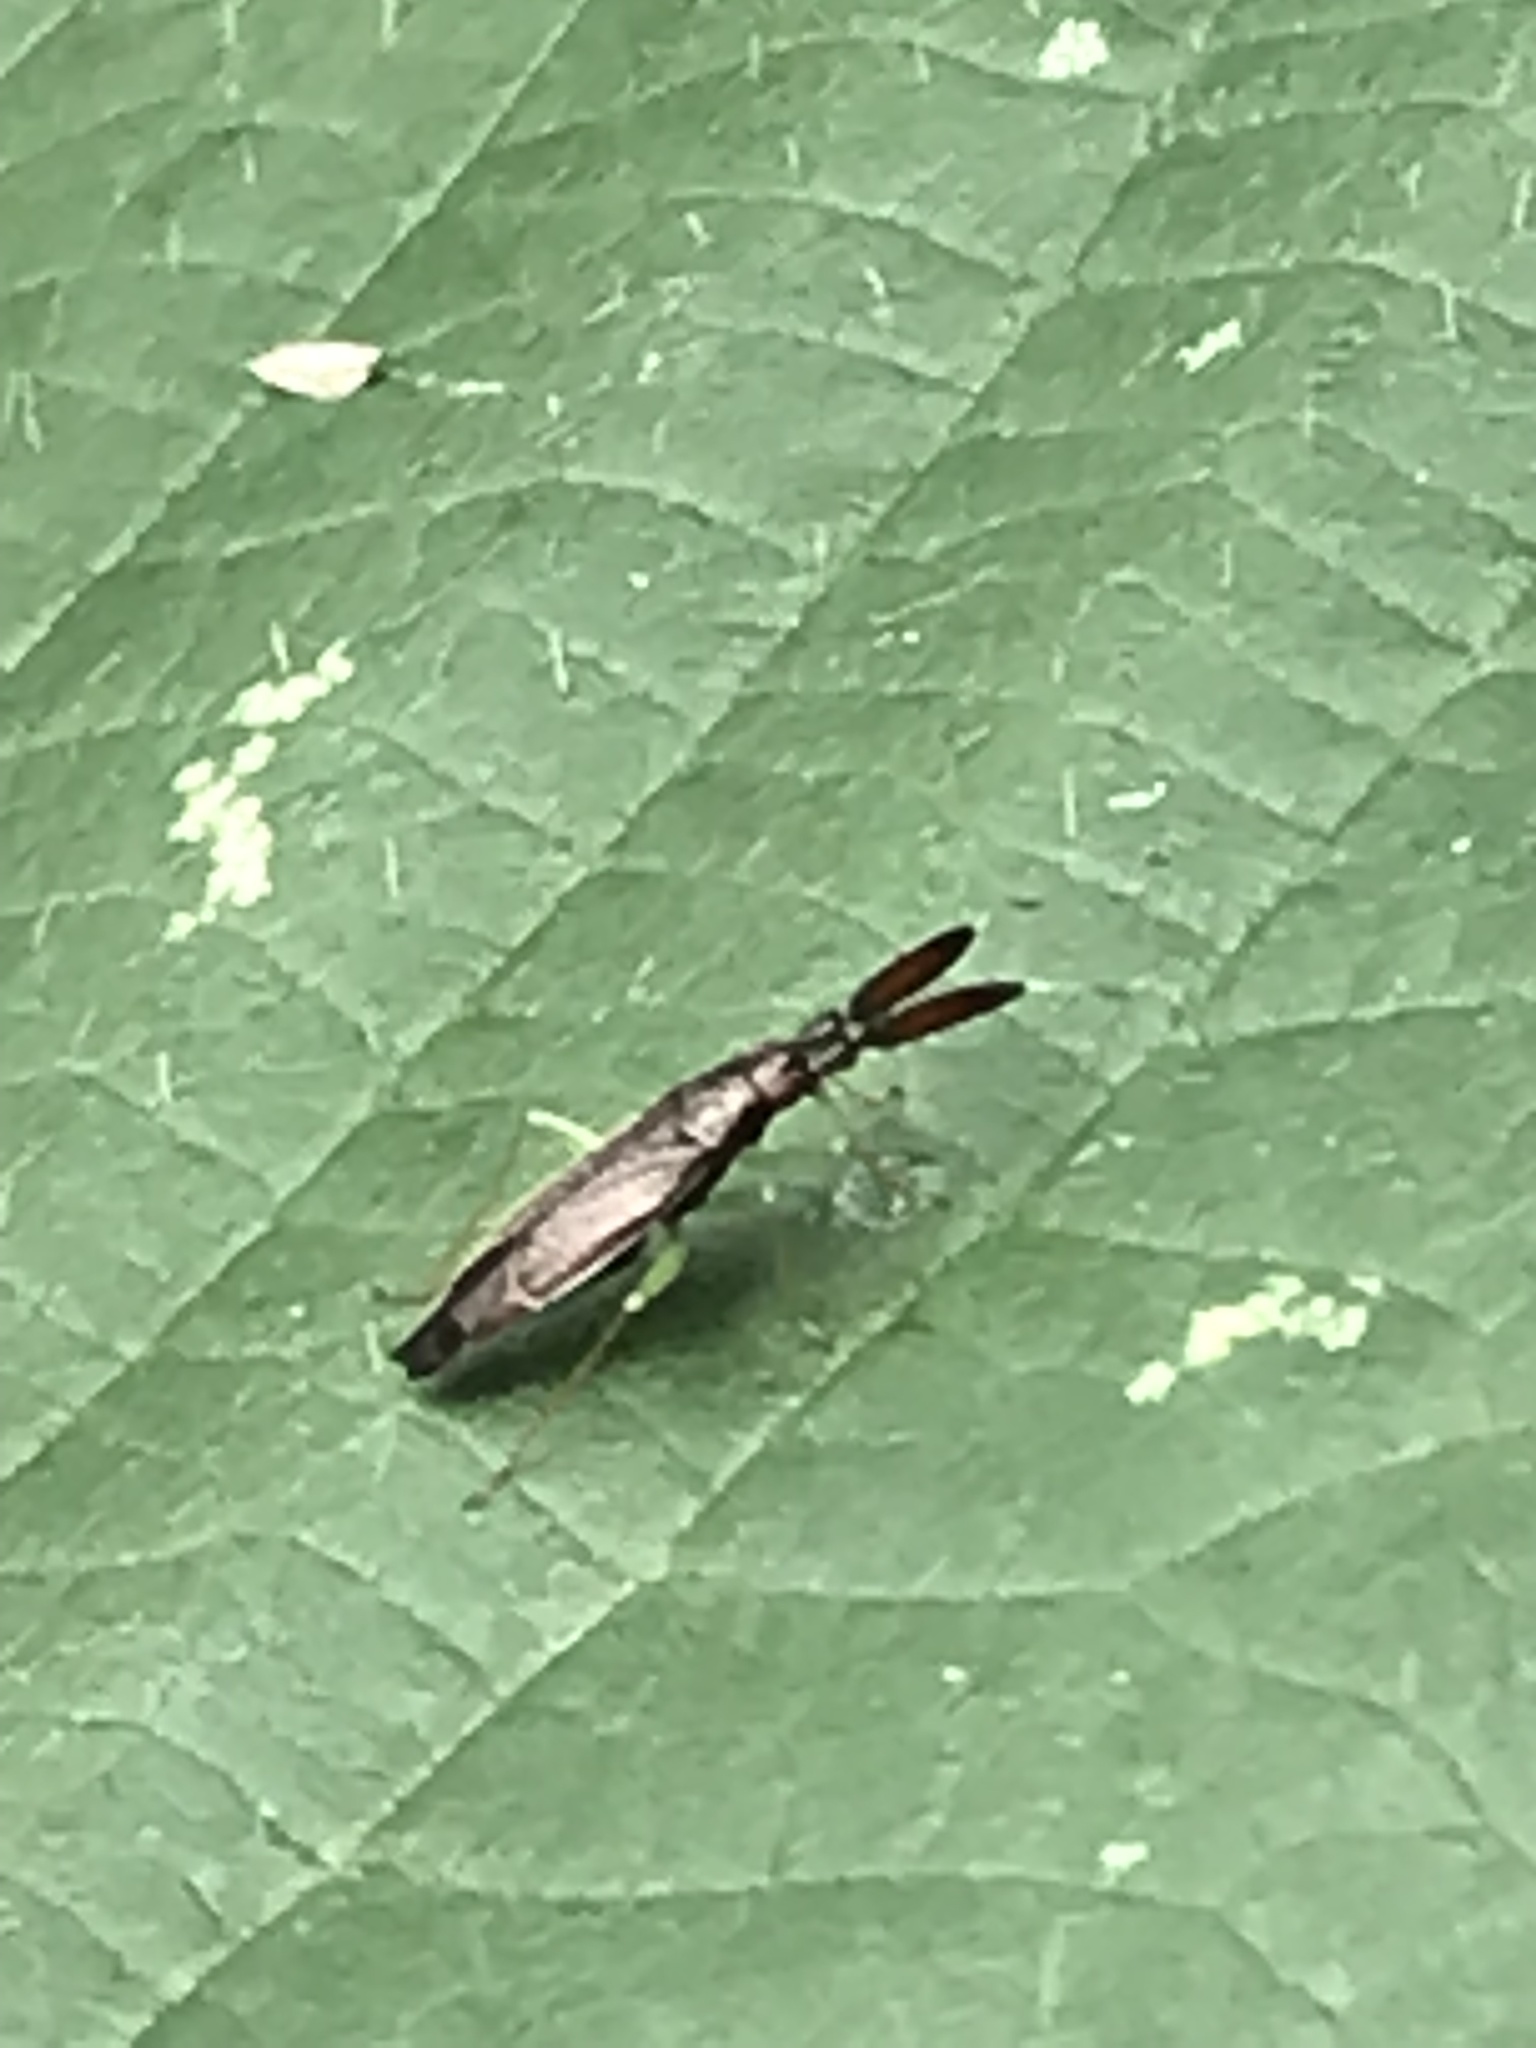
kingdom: Animalia
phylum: Arthropoda
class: Insecta
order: Hemiptera
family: Miridae
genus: Heterotoma
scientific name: Heterotoma planicornis
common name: Plant bug
